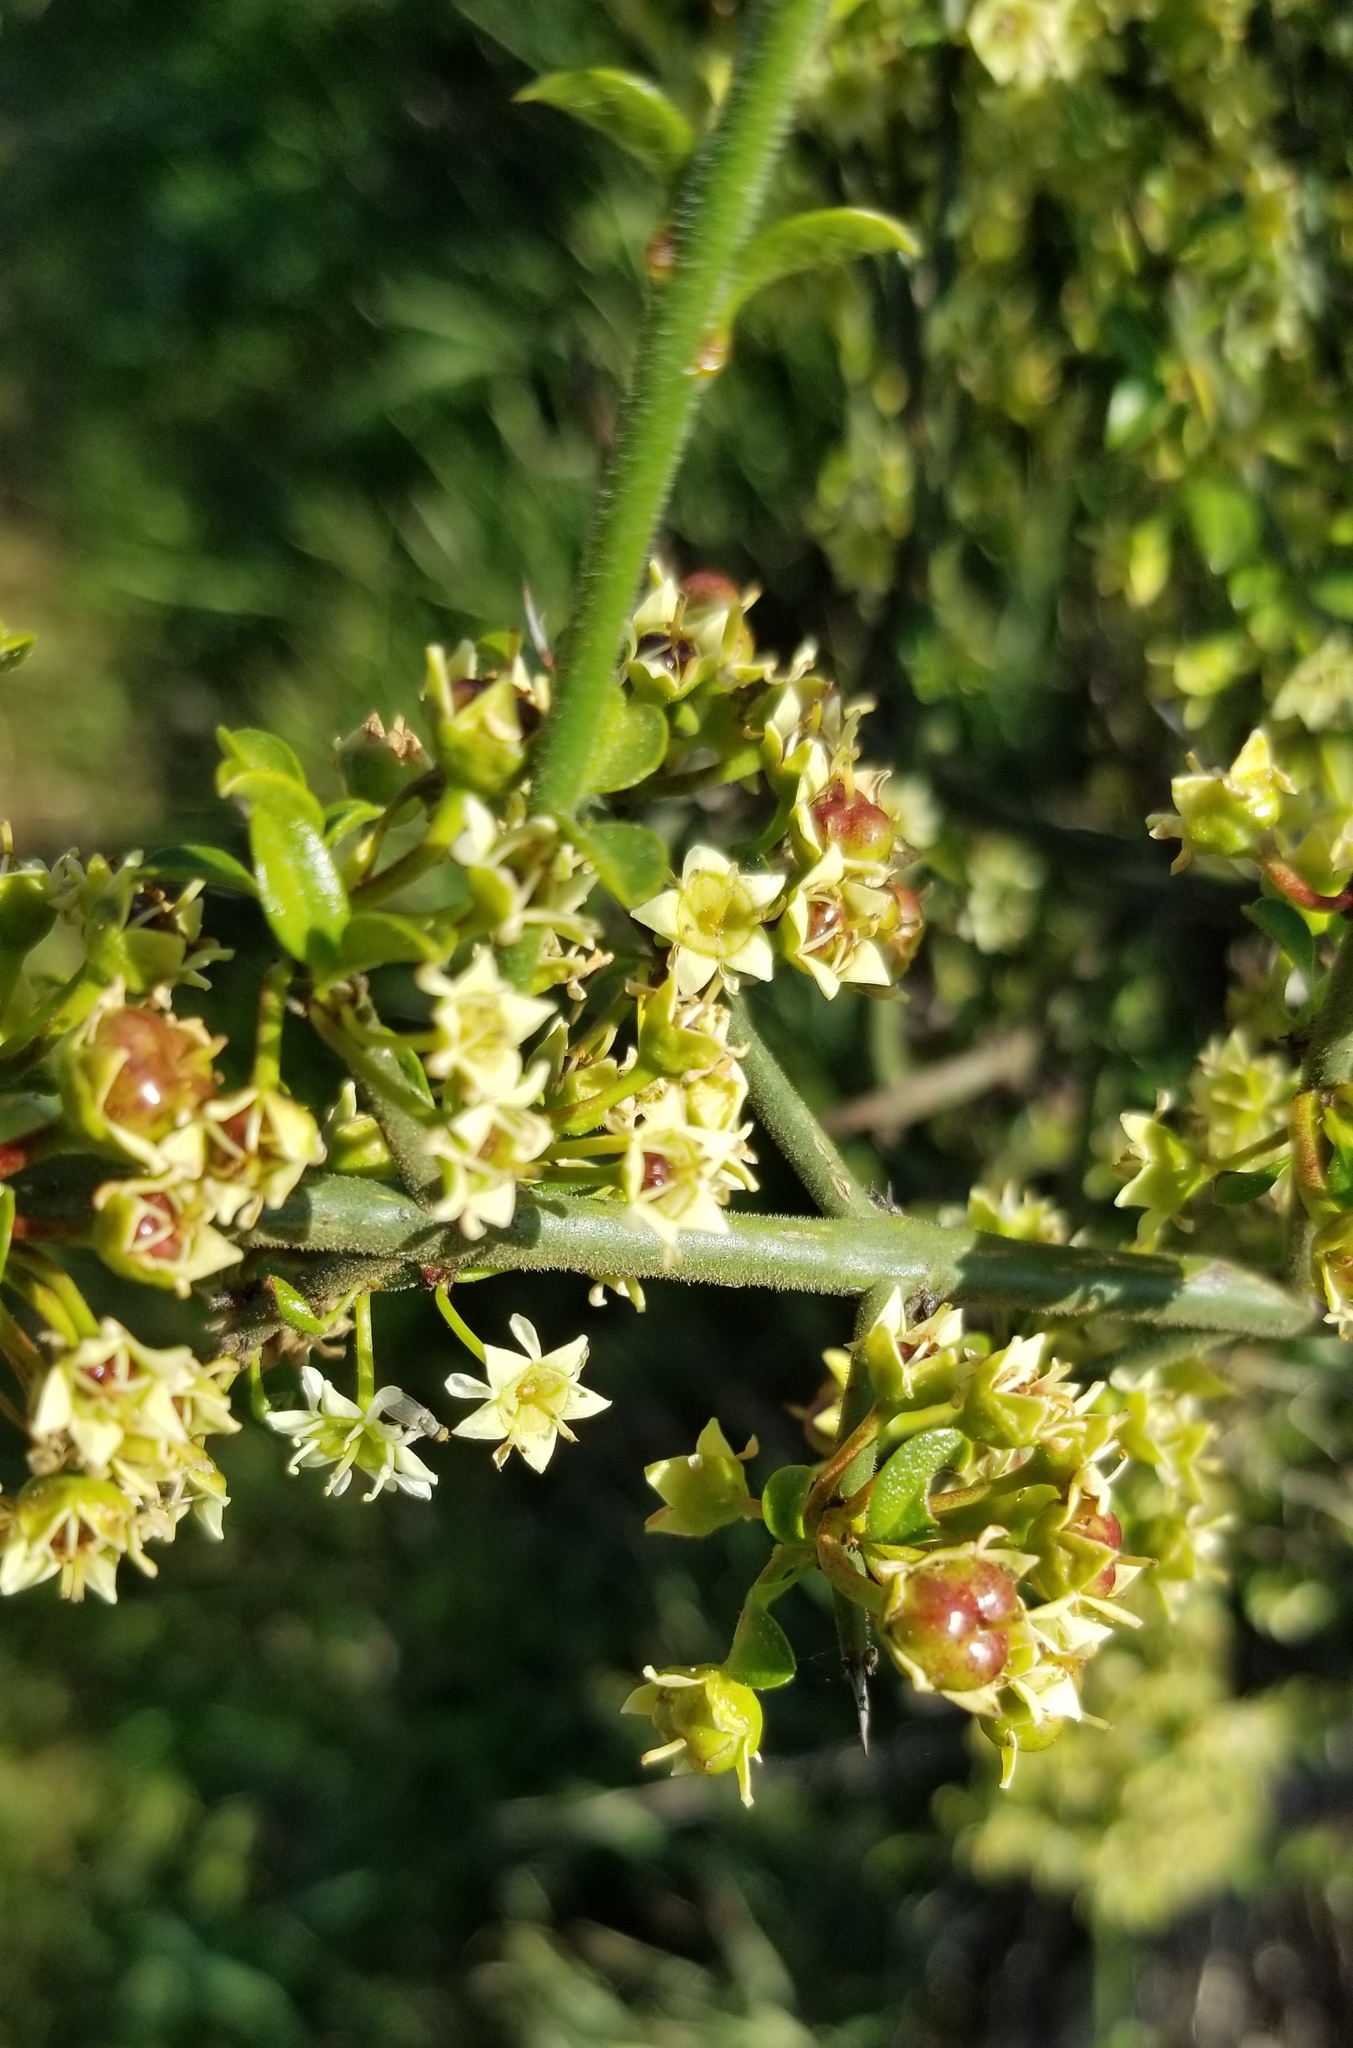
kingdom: Plantae
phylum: Tracheophyta
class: Magnoliopsida
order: Rosales
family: Rhamnaceae
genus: Adolphia
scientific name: Adolphia californica
